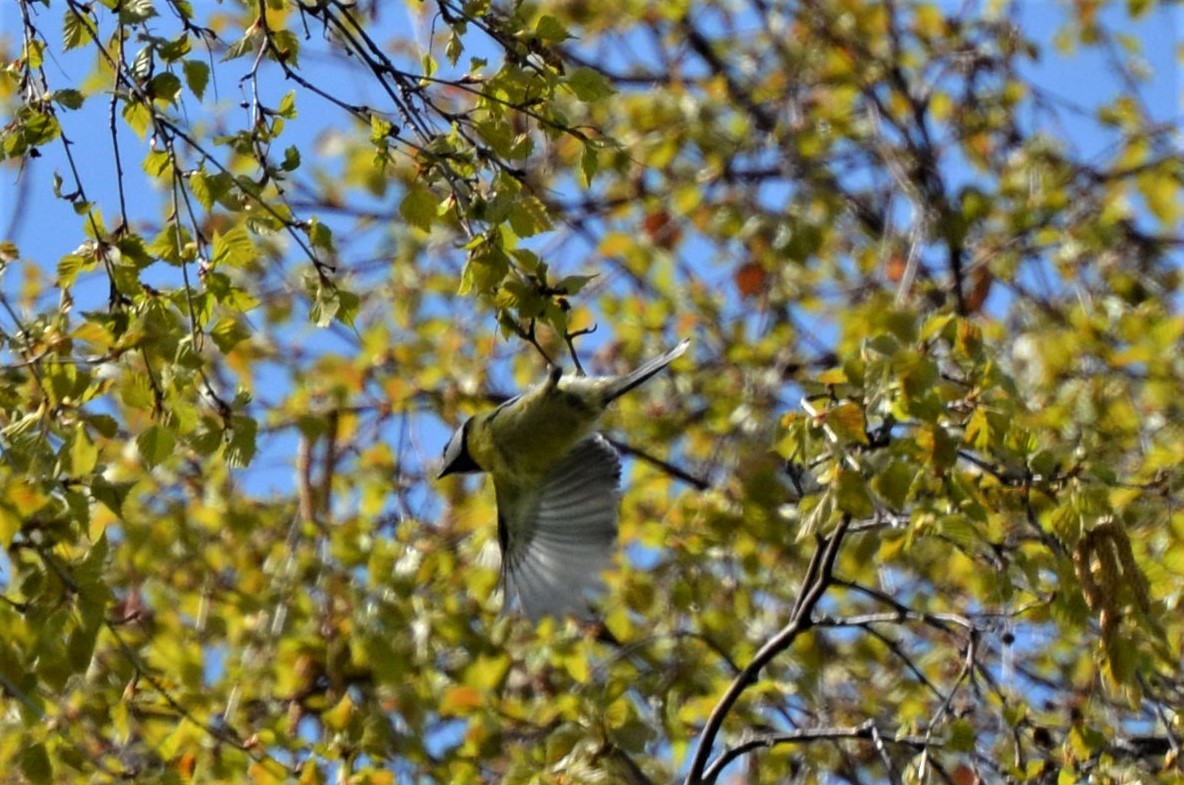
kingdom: Animalia
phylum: Chordata
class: Aves
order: Passeriformes
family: Paridae
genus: Cyanistes
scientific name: Cyanistes caeruleus
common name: Eurasian blue tit
